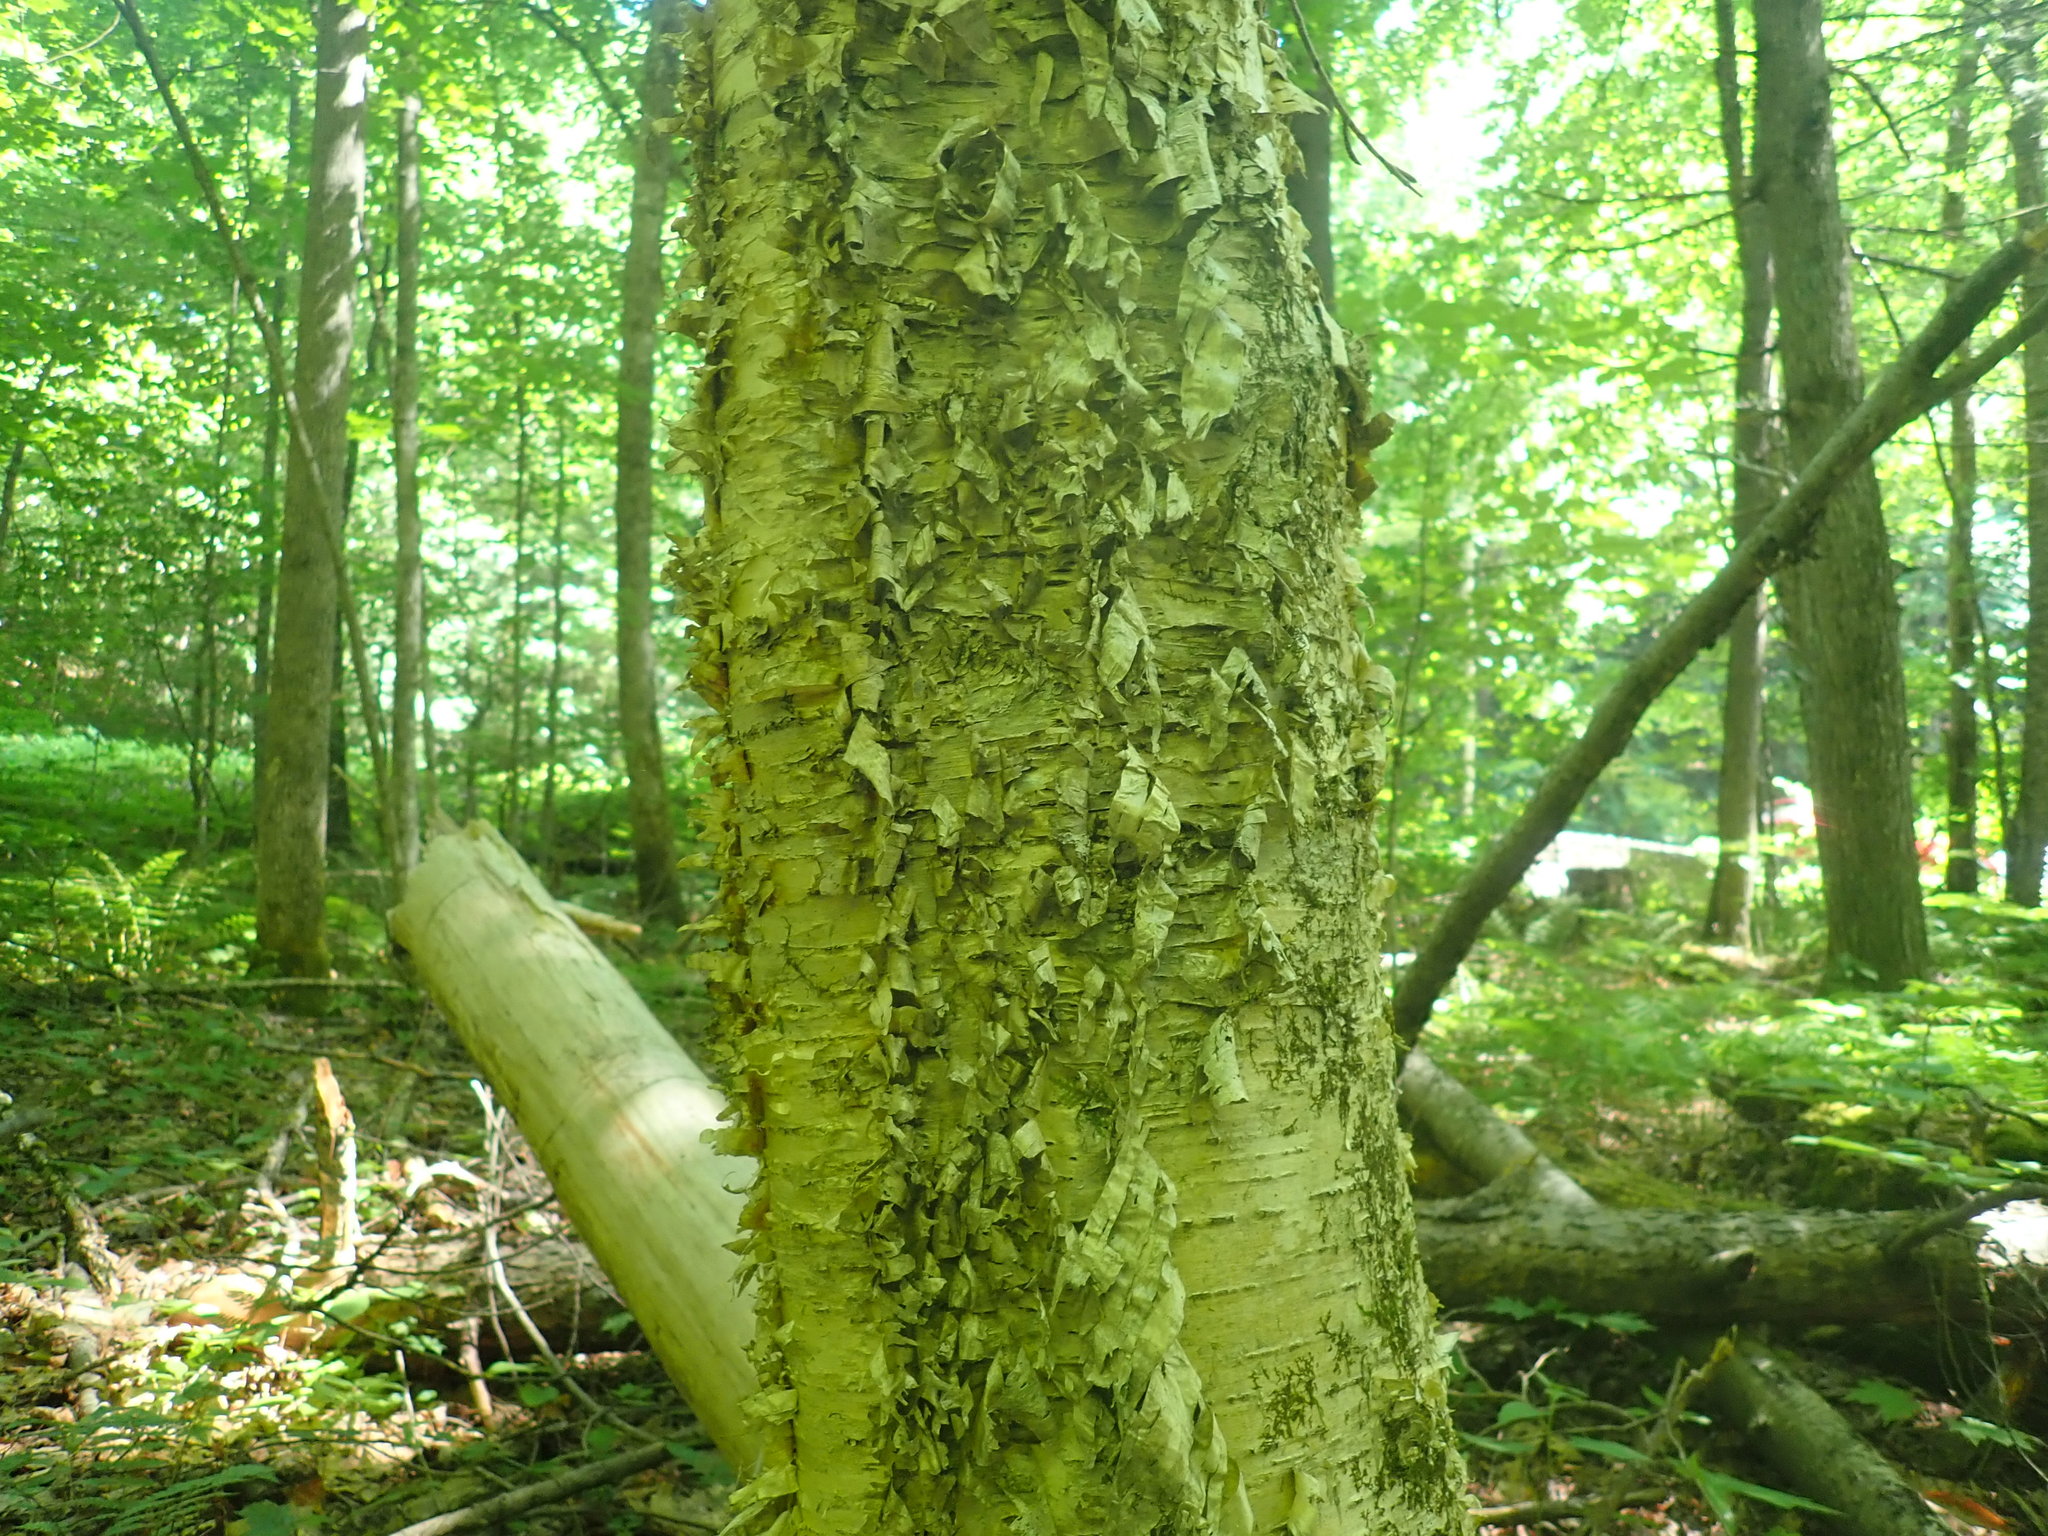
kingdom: Plantae
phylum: Tracheophyta
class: Magnoliopsida
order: Fagales
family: Betulaceae
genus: Betula
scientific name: Betula alleghaniensis
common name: Yellow birch
